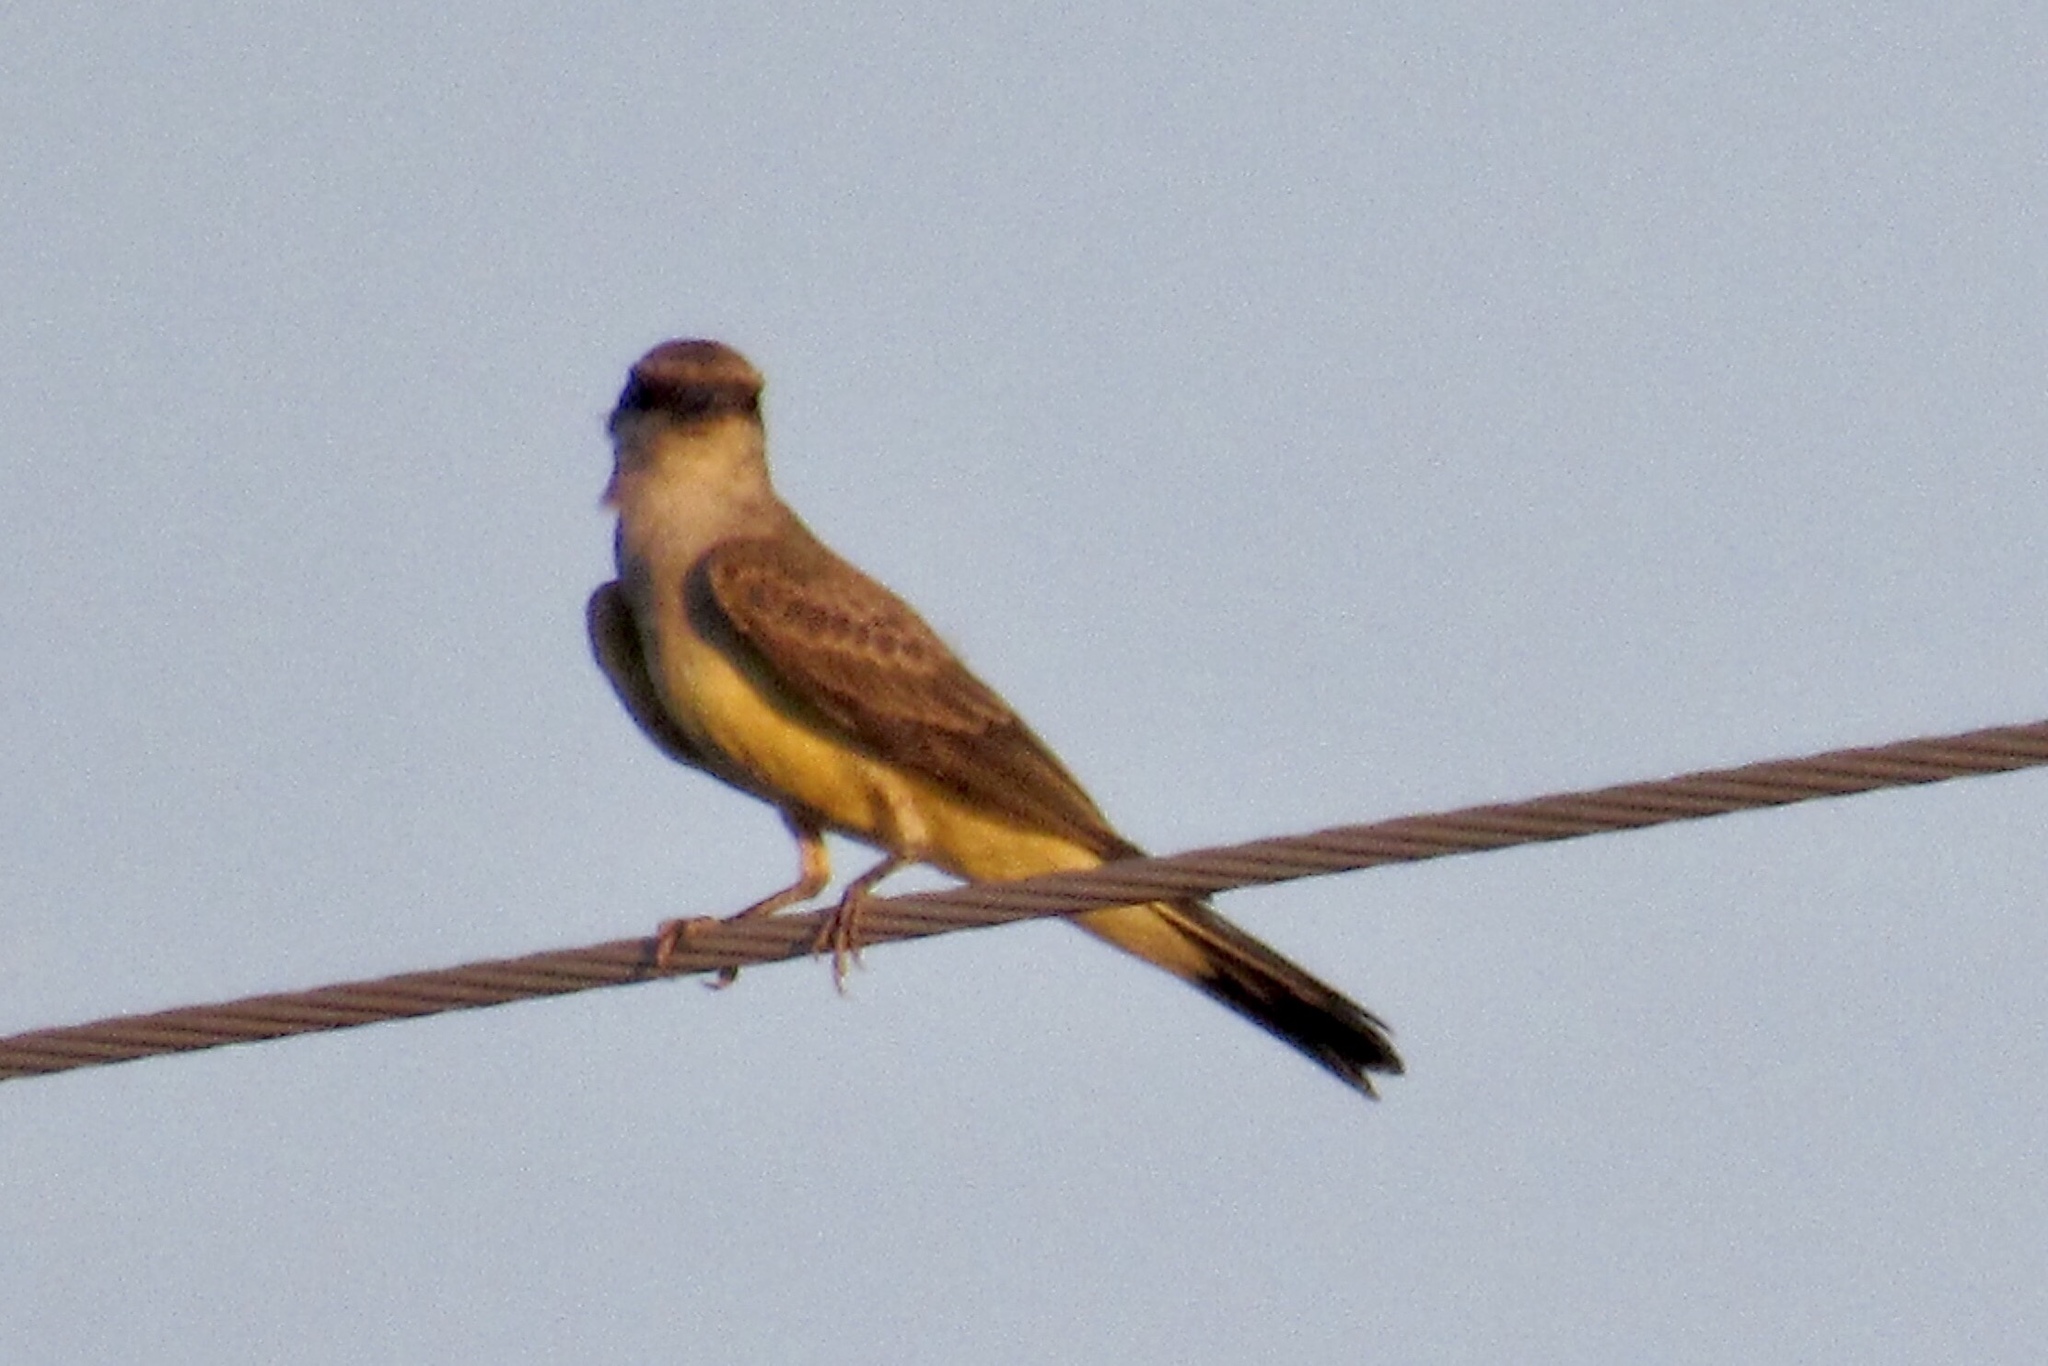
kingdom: Animalia
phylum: Chordata
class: Aves
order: Passeriformes
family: Tyrannidae
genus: Tyrannus
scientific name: Tyrannus verticalis
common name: Western kingbird
